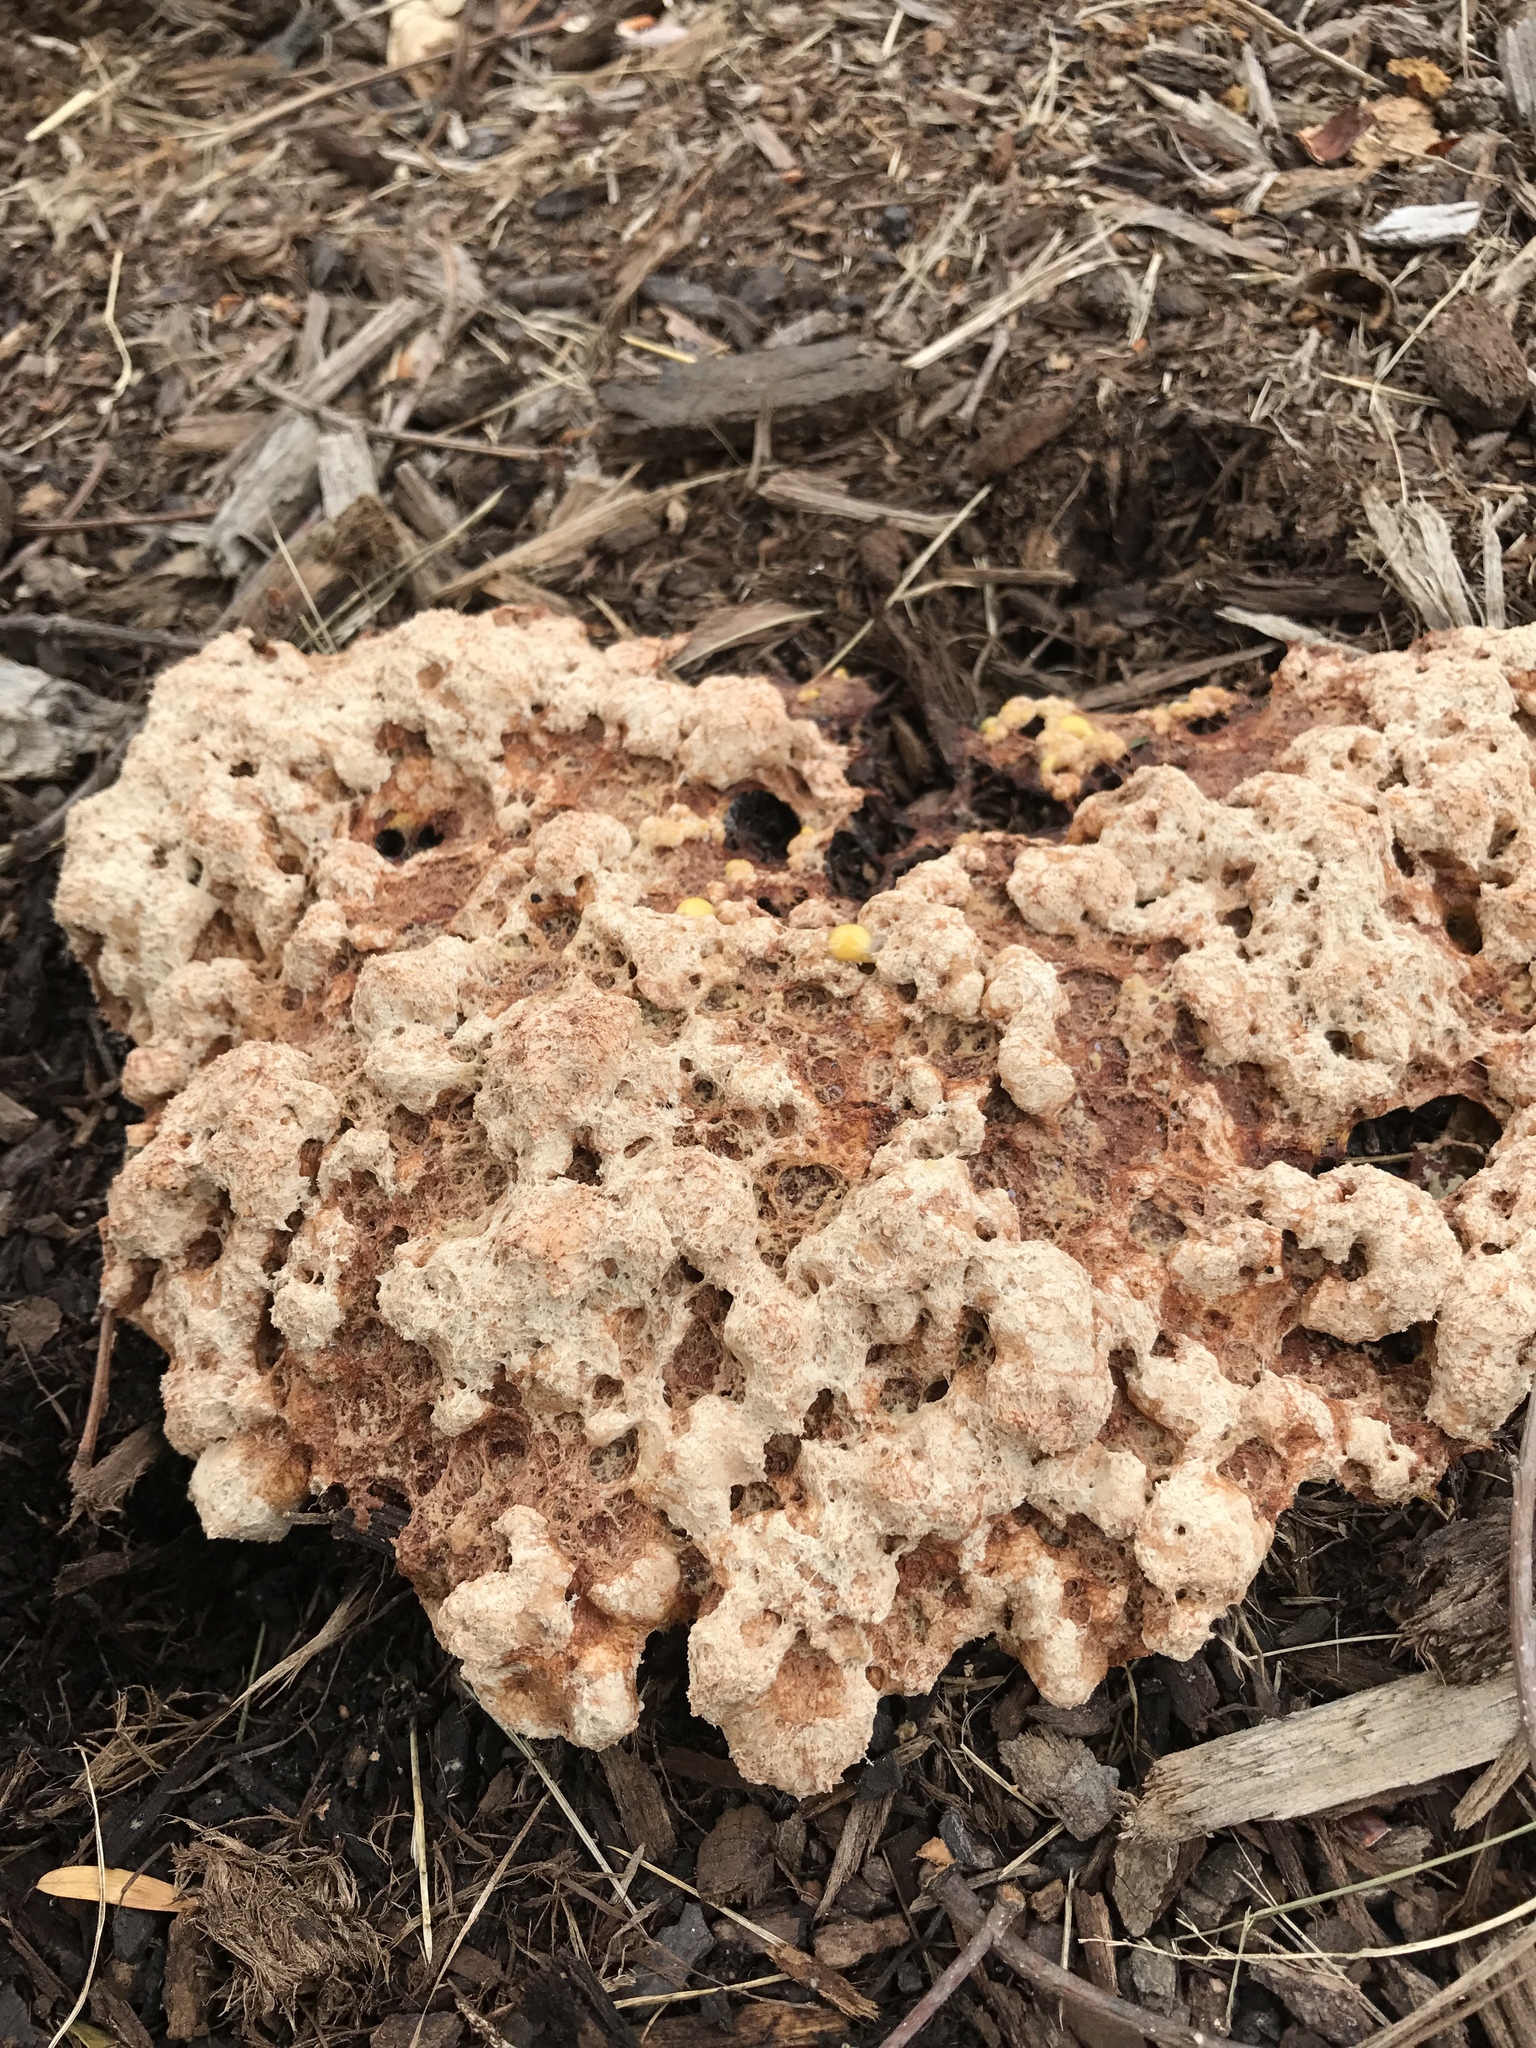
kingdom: Protozoa
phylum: Mycetozoa
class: Myxomycetes
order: Physarales
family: Physaraceae
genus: Fuligo
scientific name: Fuligo septica
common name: Dog vomit slime mold
